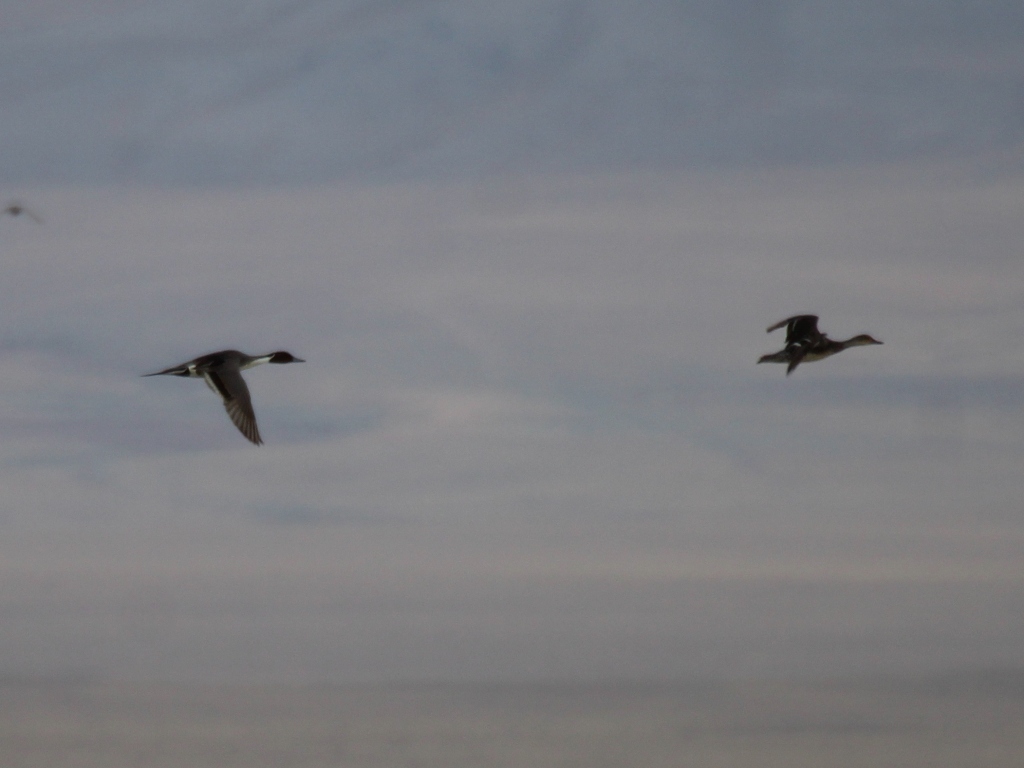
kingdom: Animalia
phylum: Chordata
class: Aves
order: Anseriformes
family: Anatidae
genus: Anas
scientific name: Anas acuta
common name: Northern pintail
